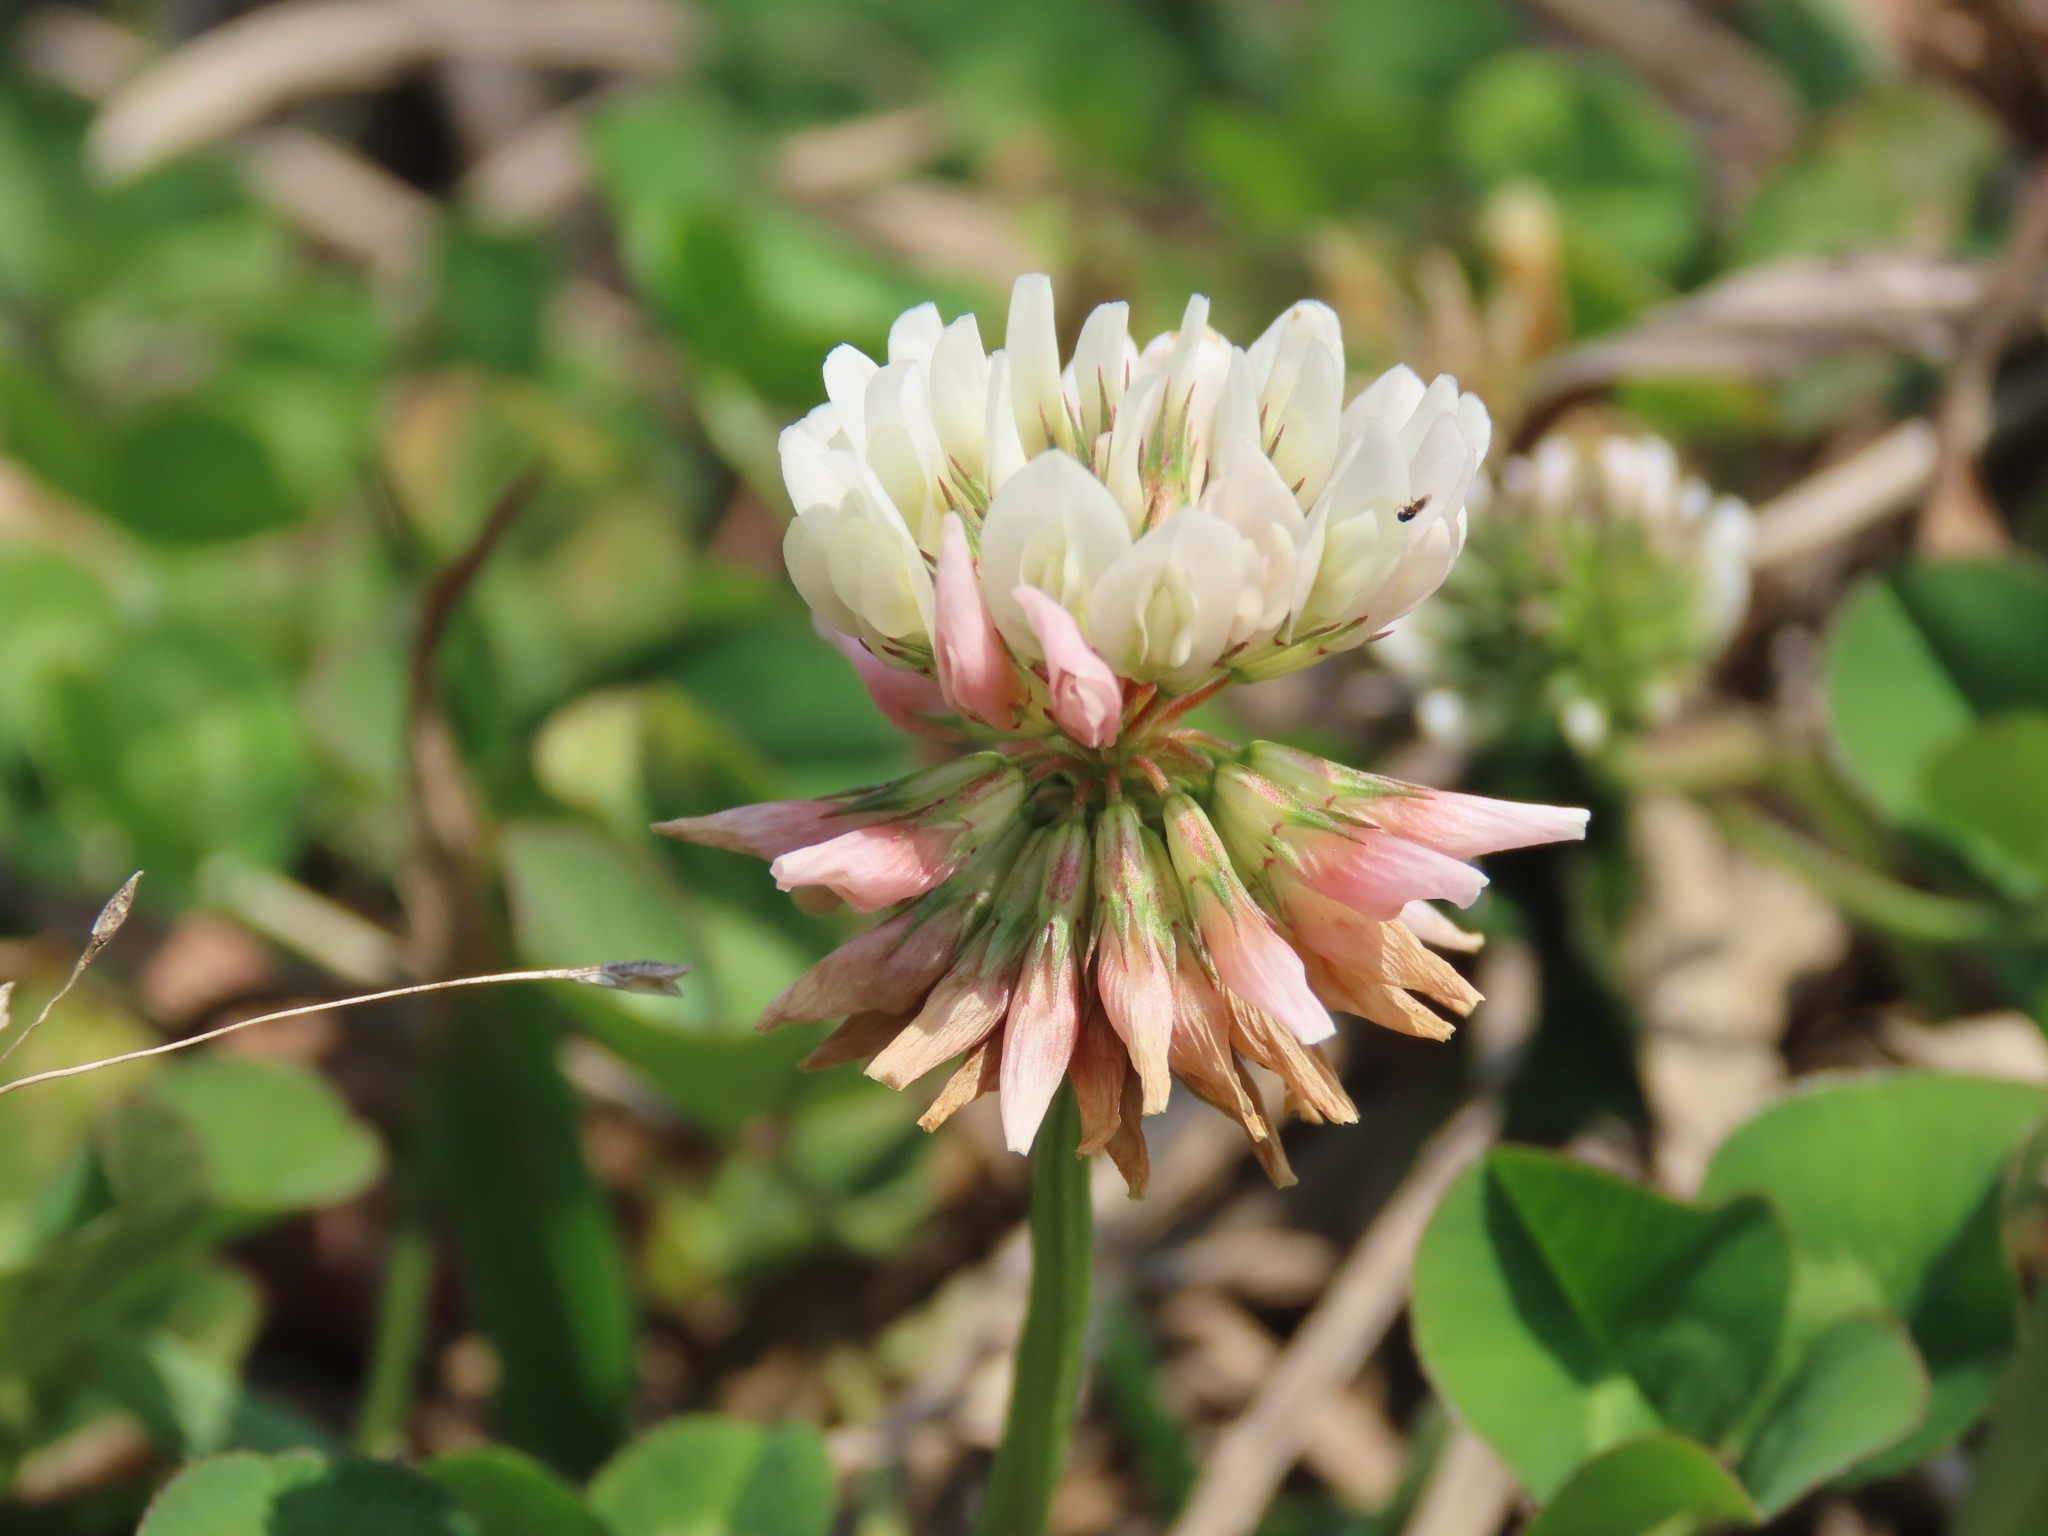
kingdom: Plantae
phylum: Tracheophyta
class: Magnoliopsida
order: Fabales
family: Fabaceae
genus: Trifolium
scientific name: Trifolium repens
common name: White clover
